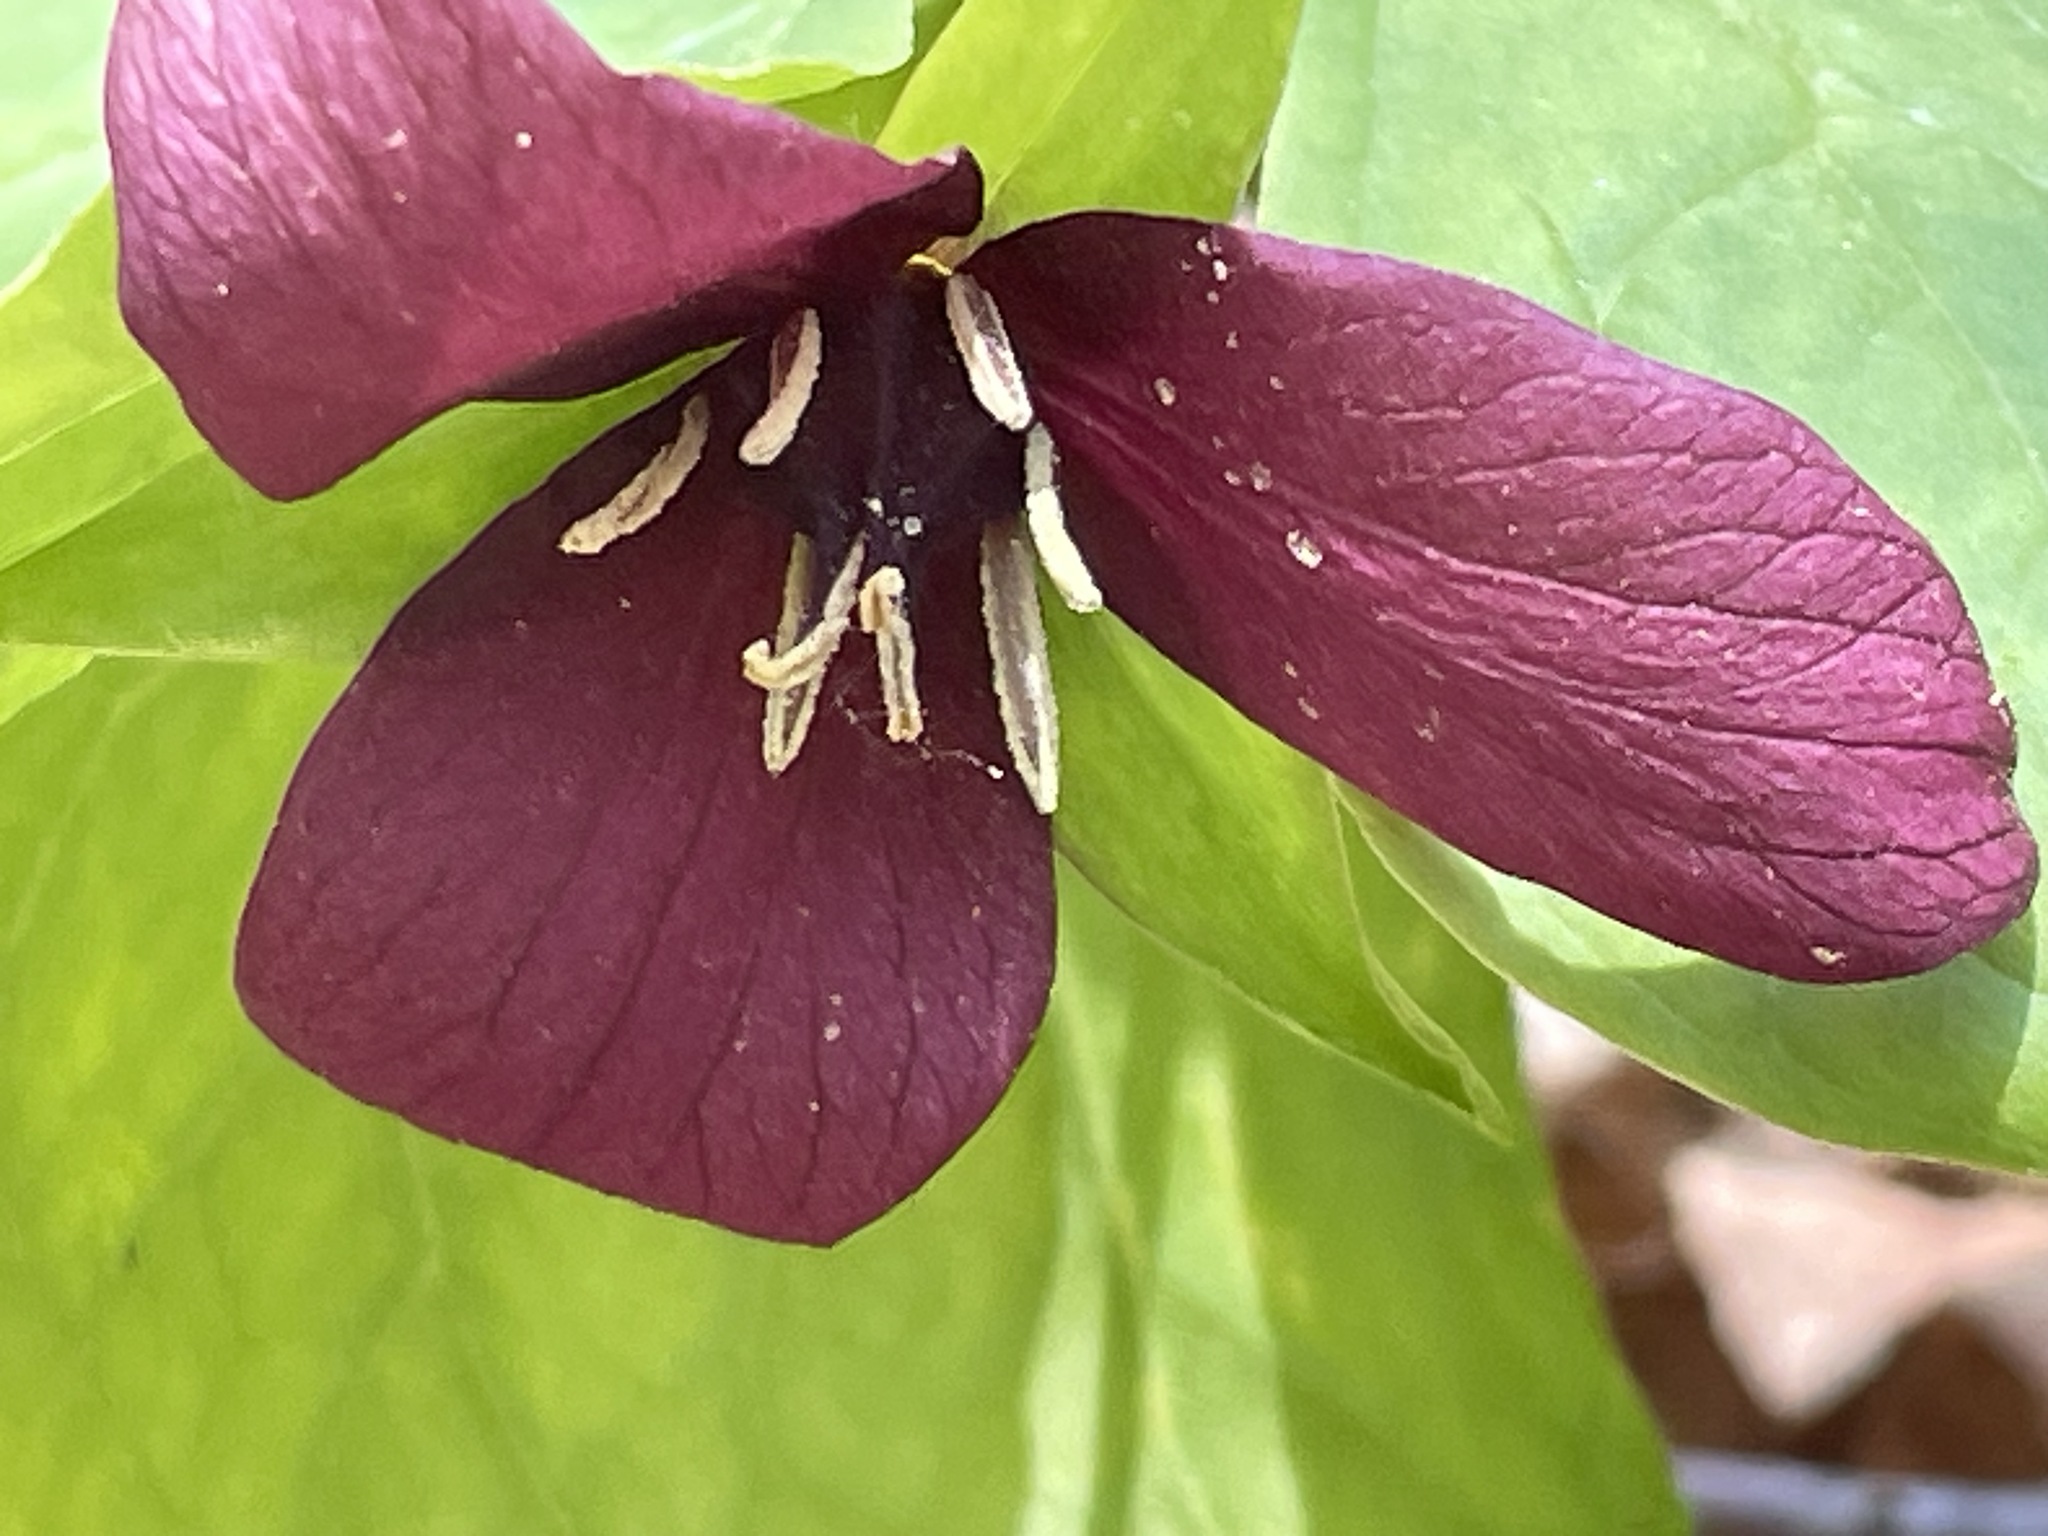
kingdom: Plantae
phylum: Tracheophyta
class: Liliopsida
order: Liliales
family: Melanthiaceae
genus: Trillium
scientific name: Trillium erectum
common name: Purple trillium
